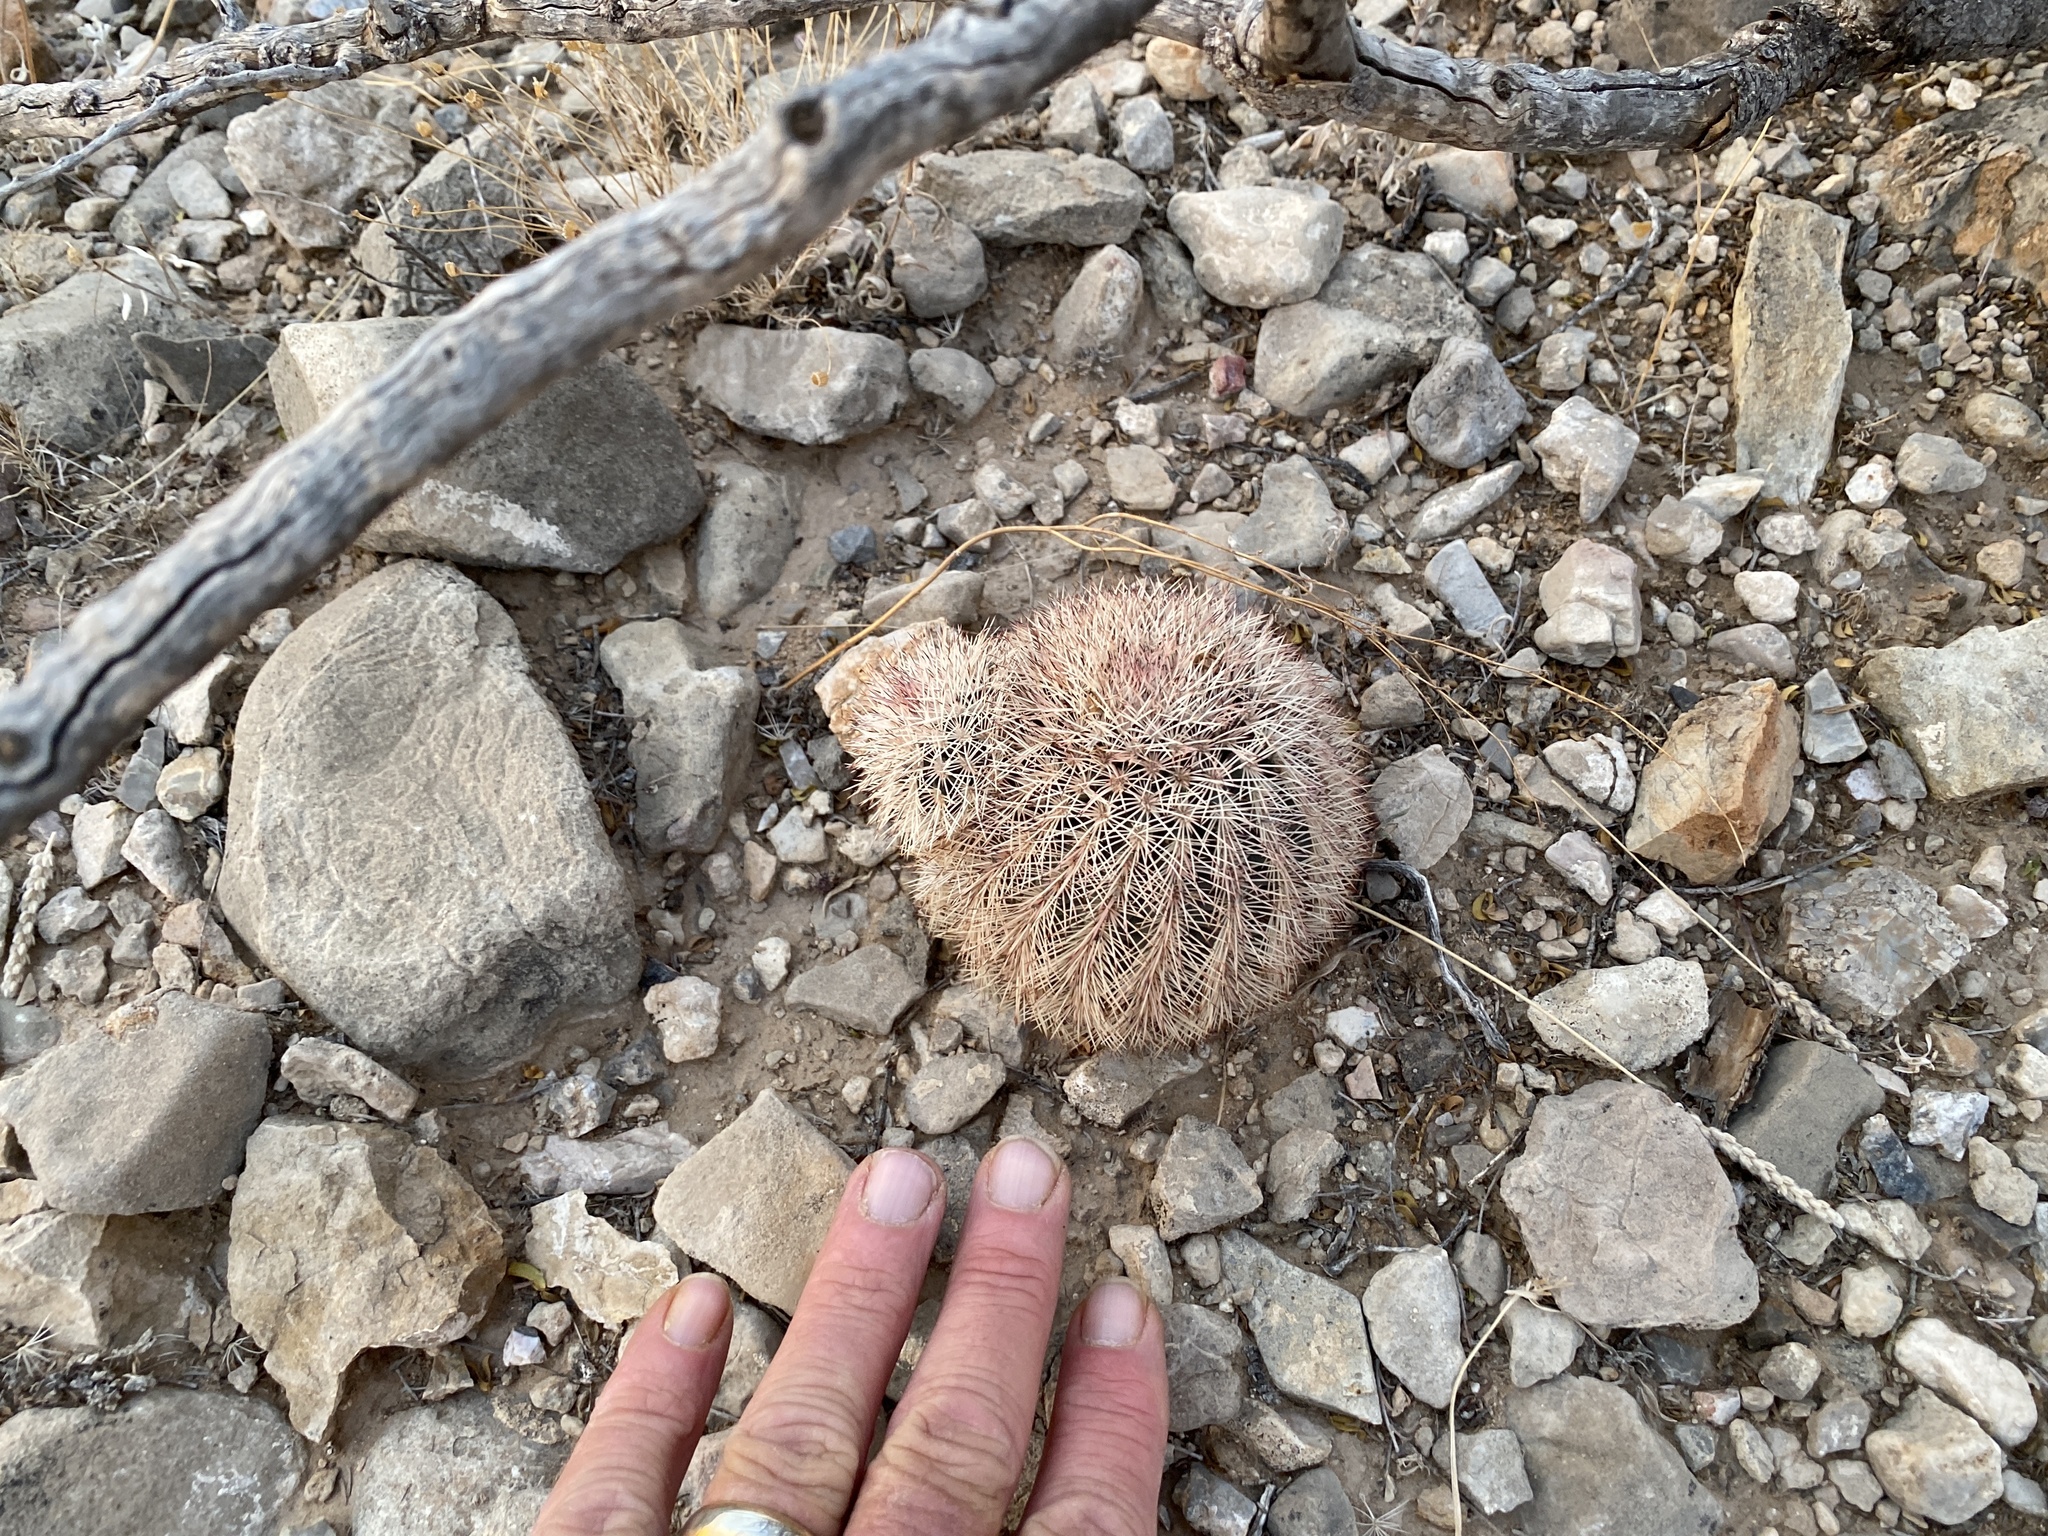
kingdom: Plantae
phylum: Tracheophyta
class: Magnoliopsida
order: Caryophyllales
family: Cactaceae
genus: Echinocereus
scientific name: Echinocereus dasyacanthus
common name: Spiny hedgehog cactus
